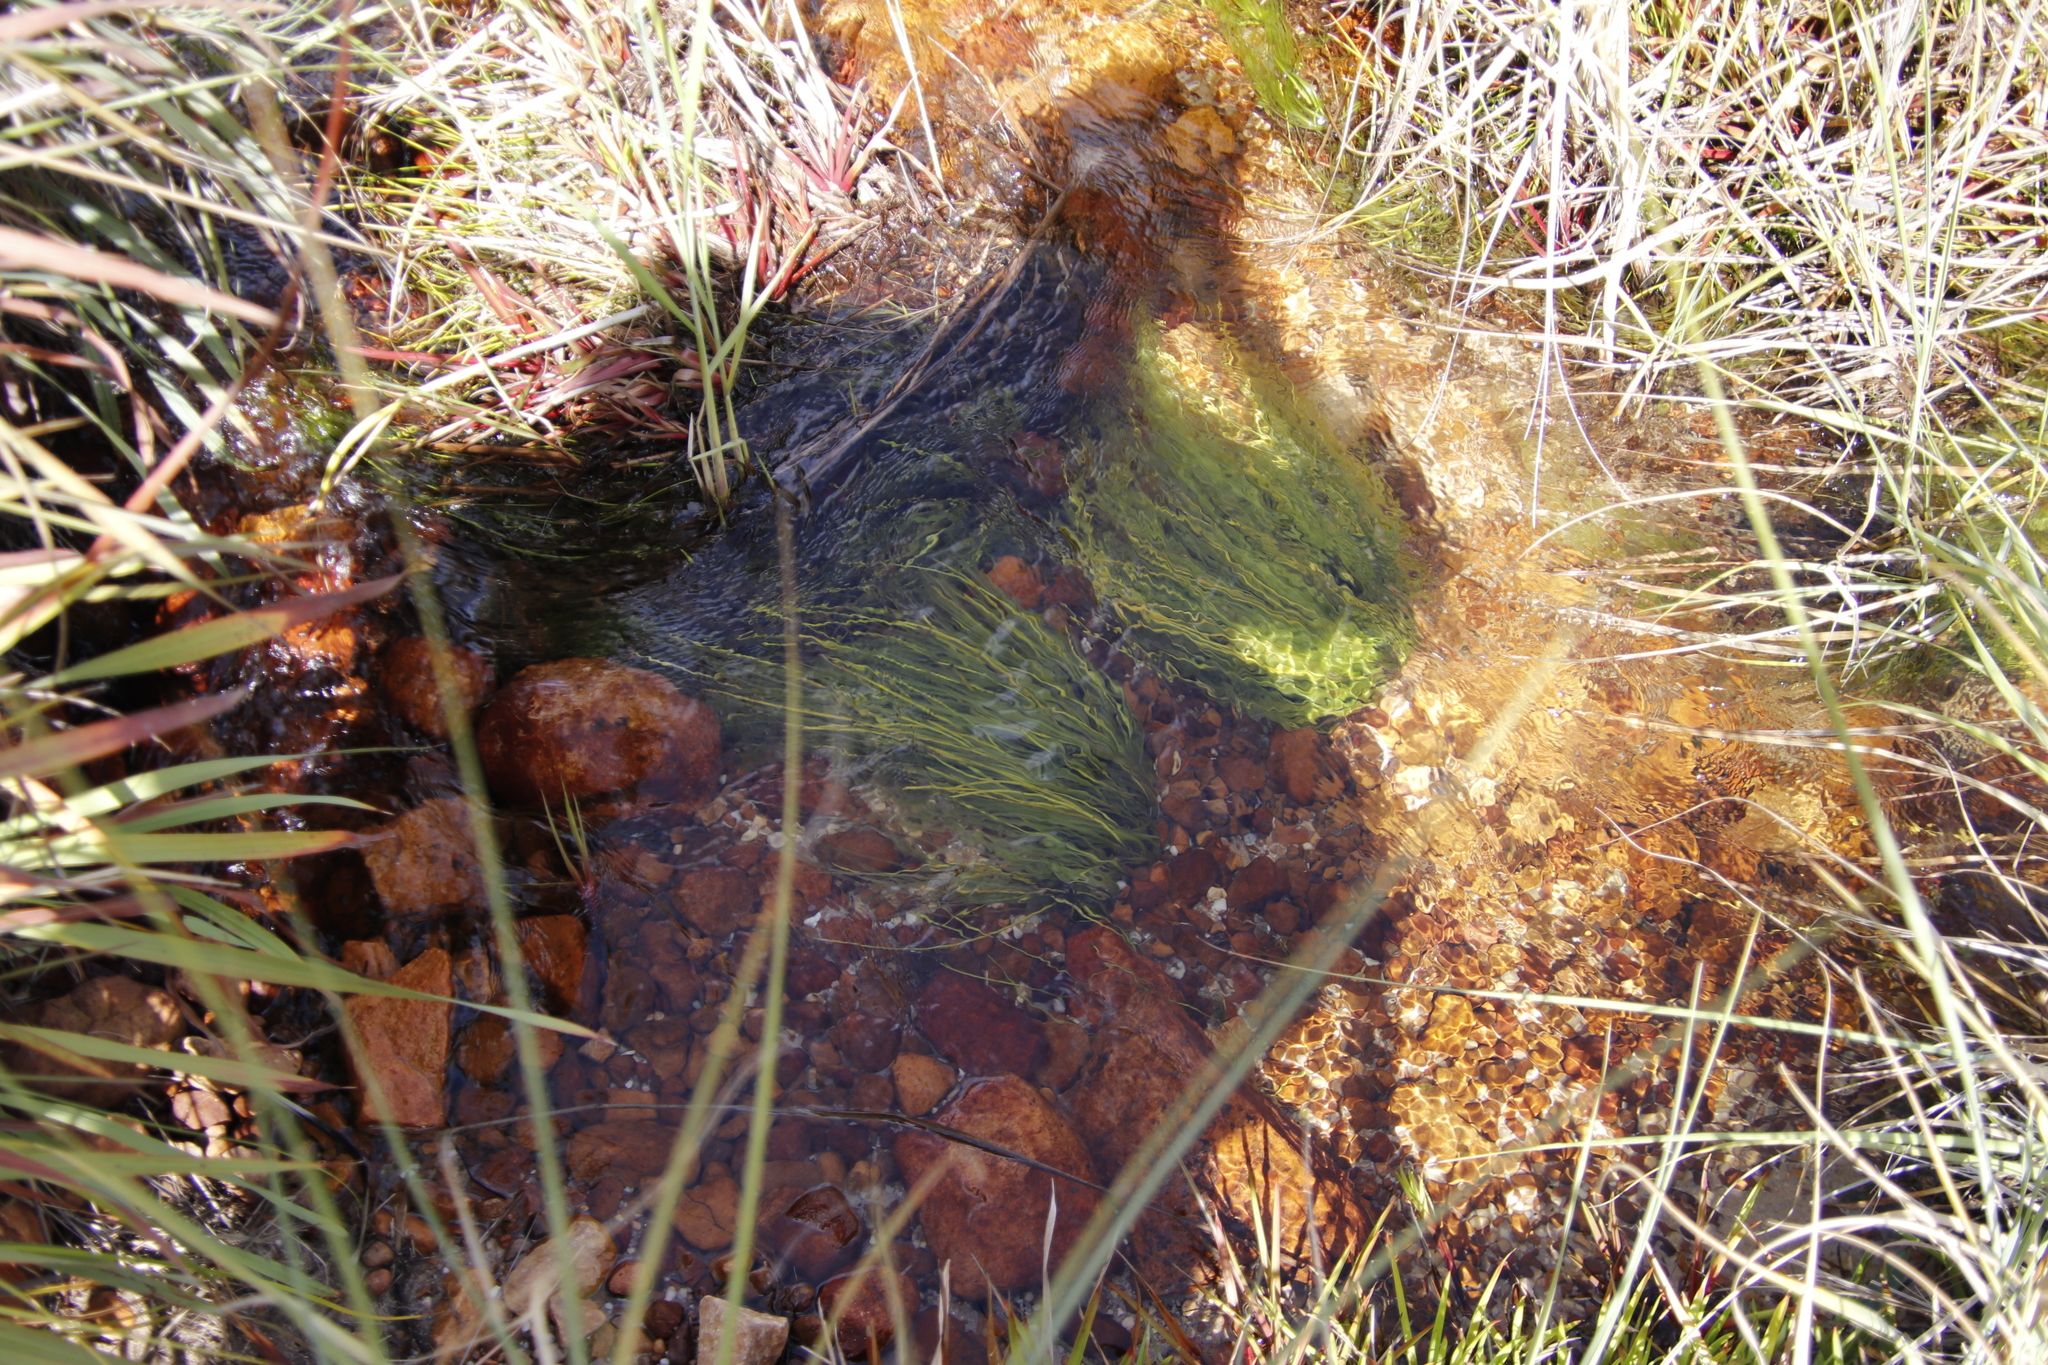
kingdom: Plantae
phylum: Tracheophyta
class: Liliopsida
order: Poales
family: Cyperaceae
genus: Isolepis
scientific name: Isolepis digitata
